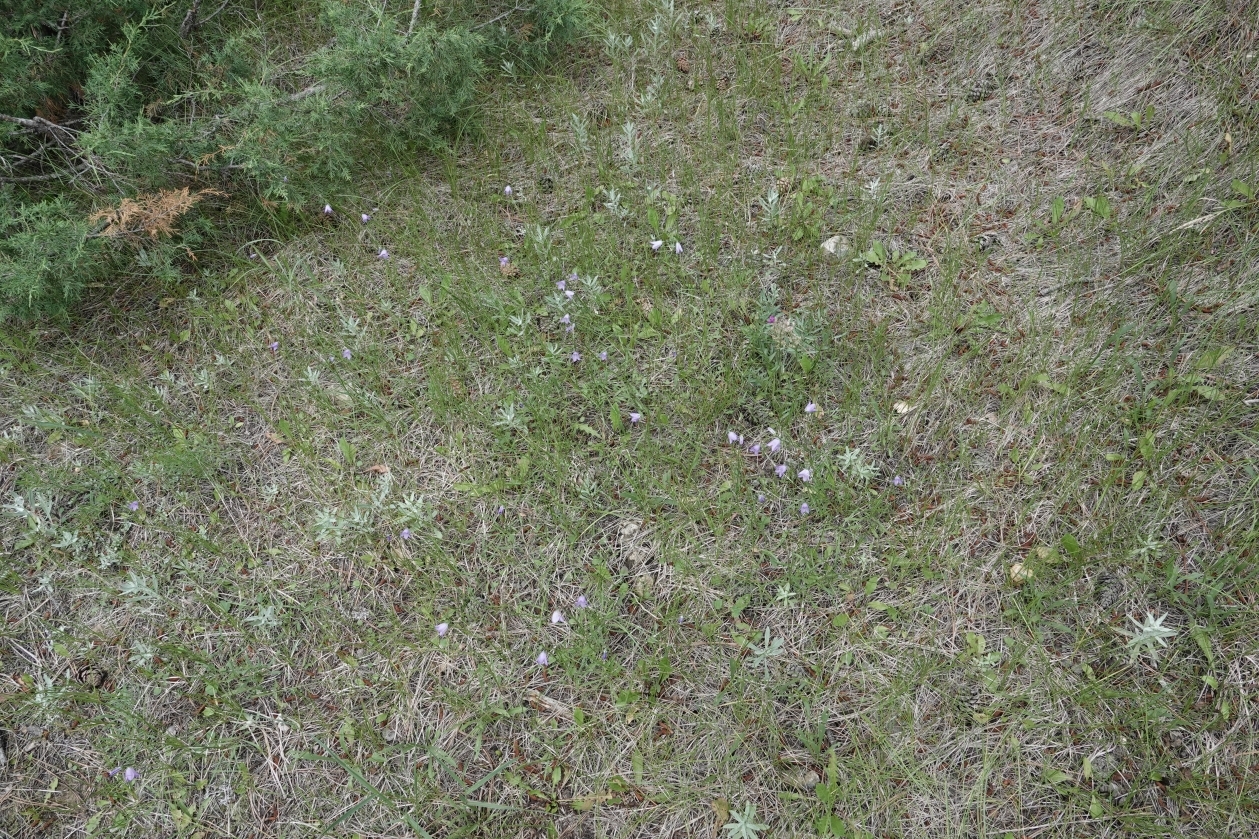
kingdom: Plantae
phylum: Tracheophyta
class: Magnoliopsida
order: Asterales
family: Campanulaceae
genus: Campanula
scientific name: Campanula petiolata
